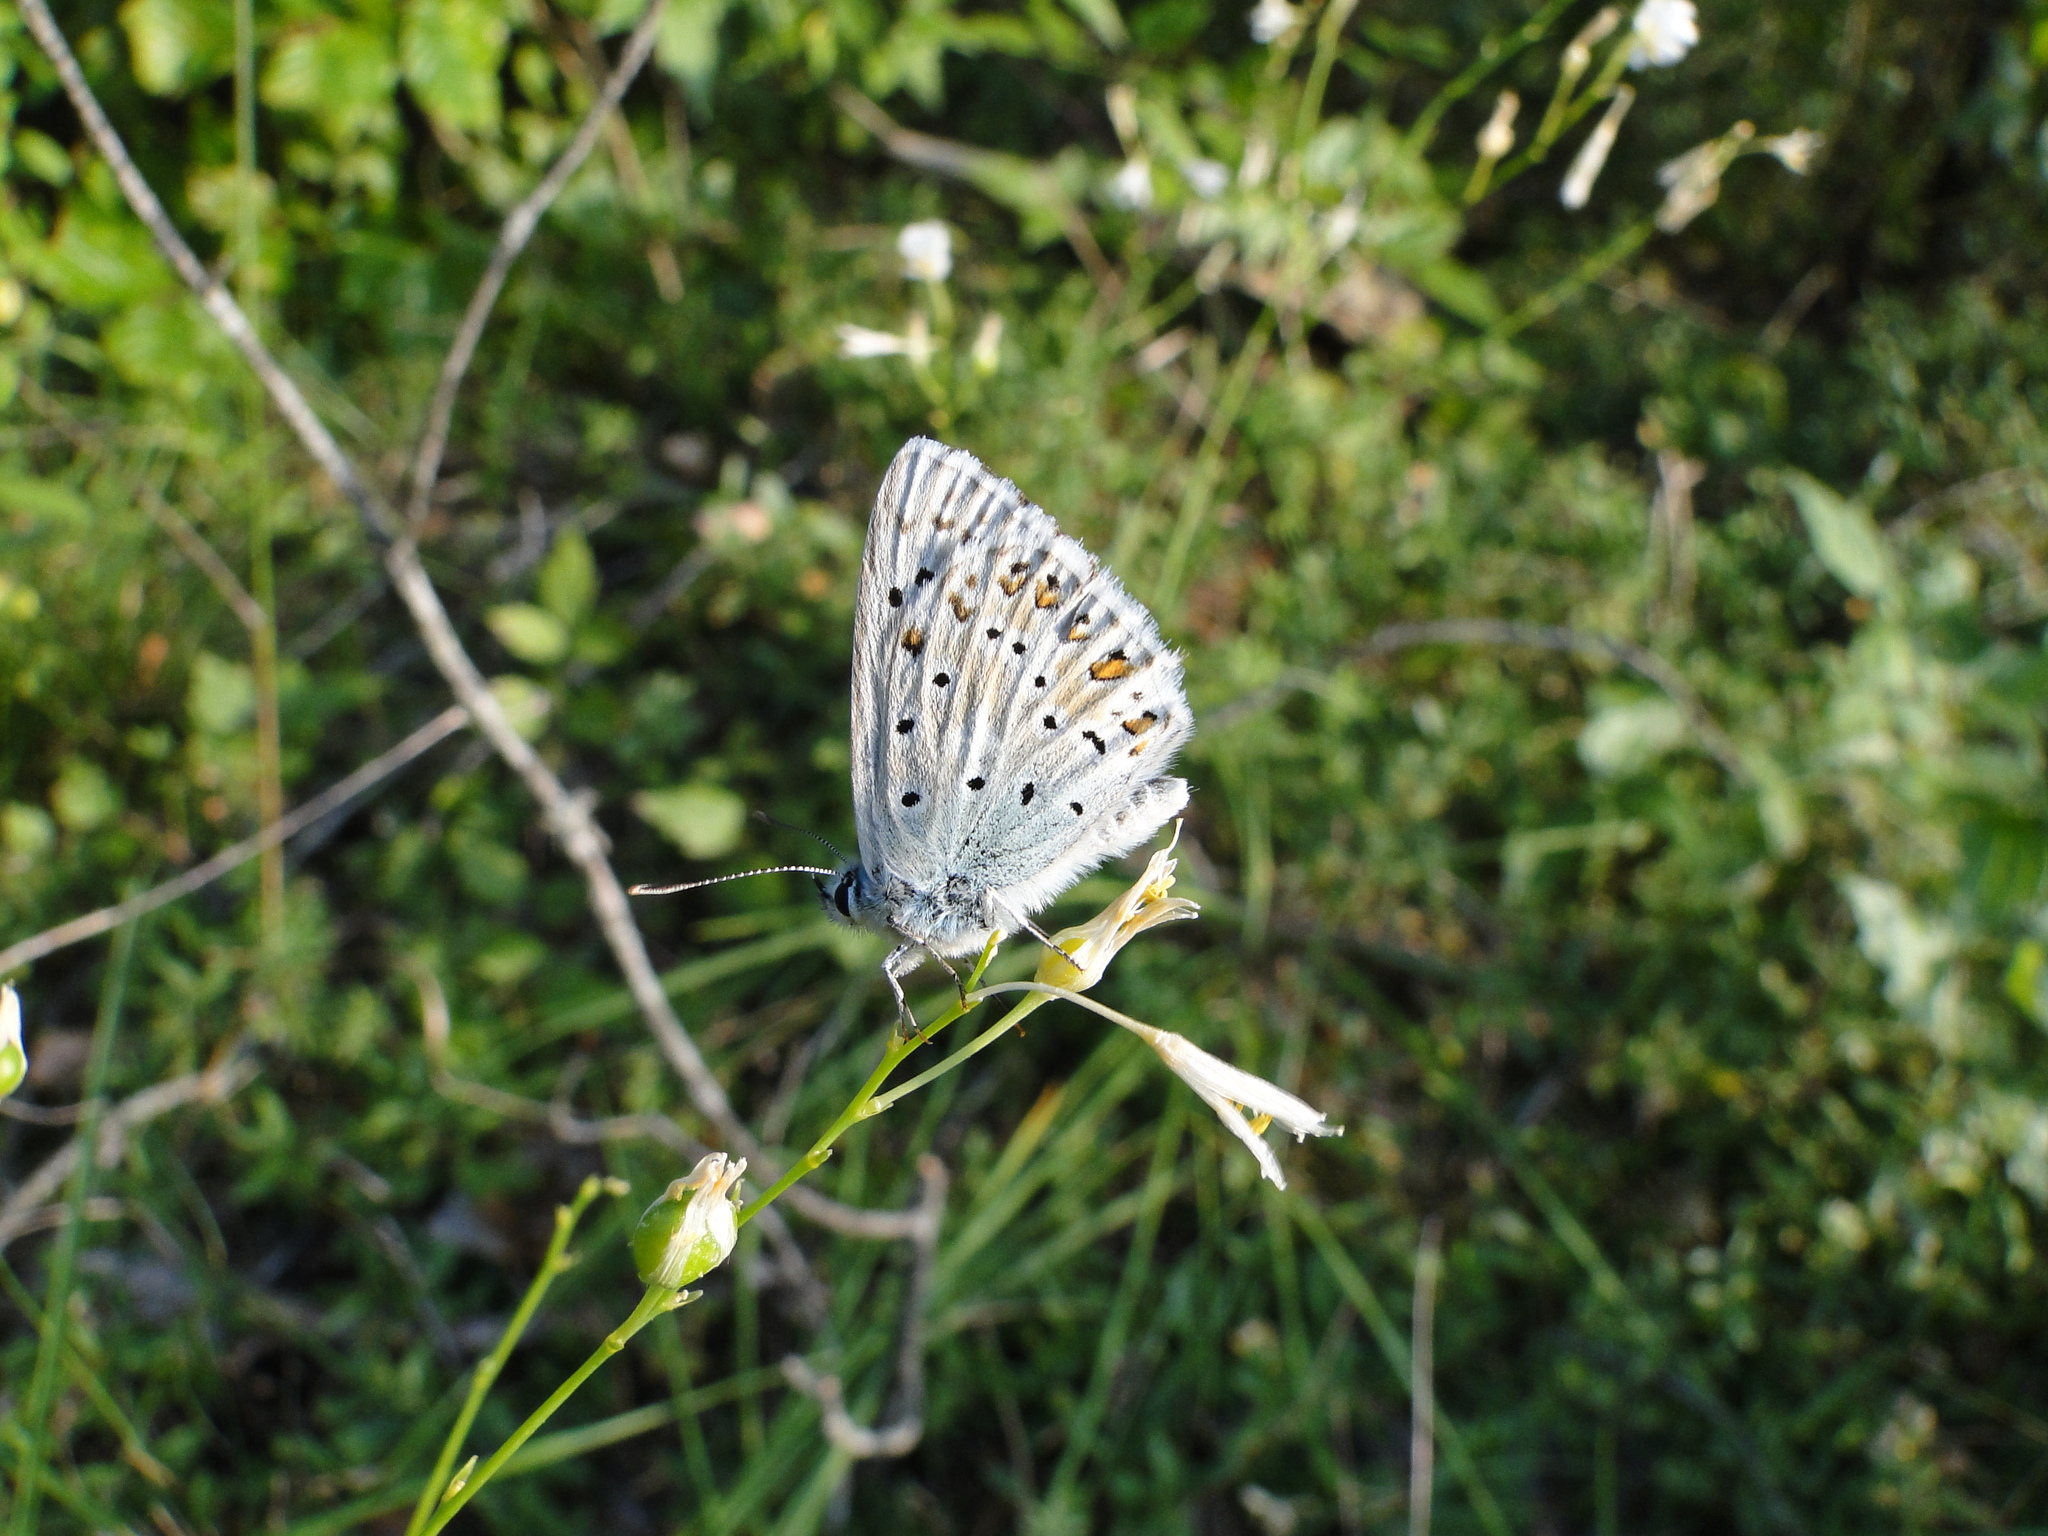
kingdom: Animalia
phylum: Arthropoda
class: Insecta
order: Lepidoptera
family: Lycaenidae
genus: Lysandra
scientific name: Lysandra coridon
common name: Chalkhill blue
